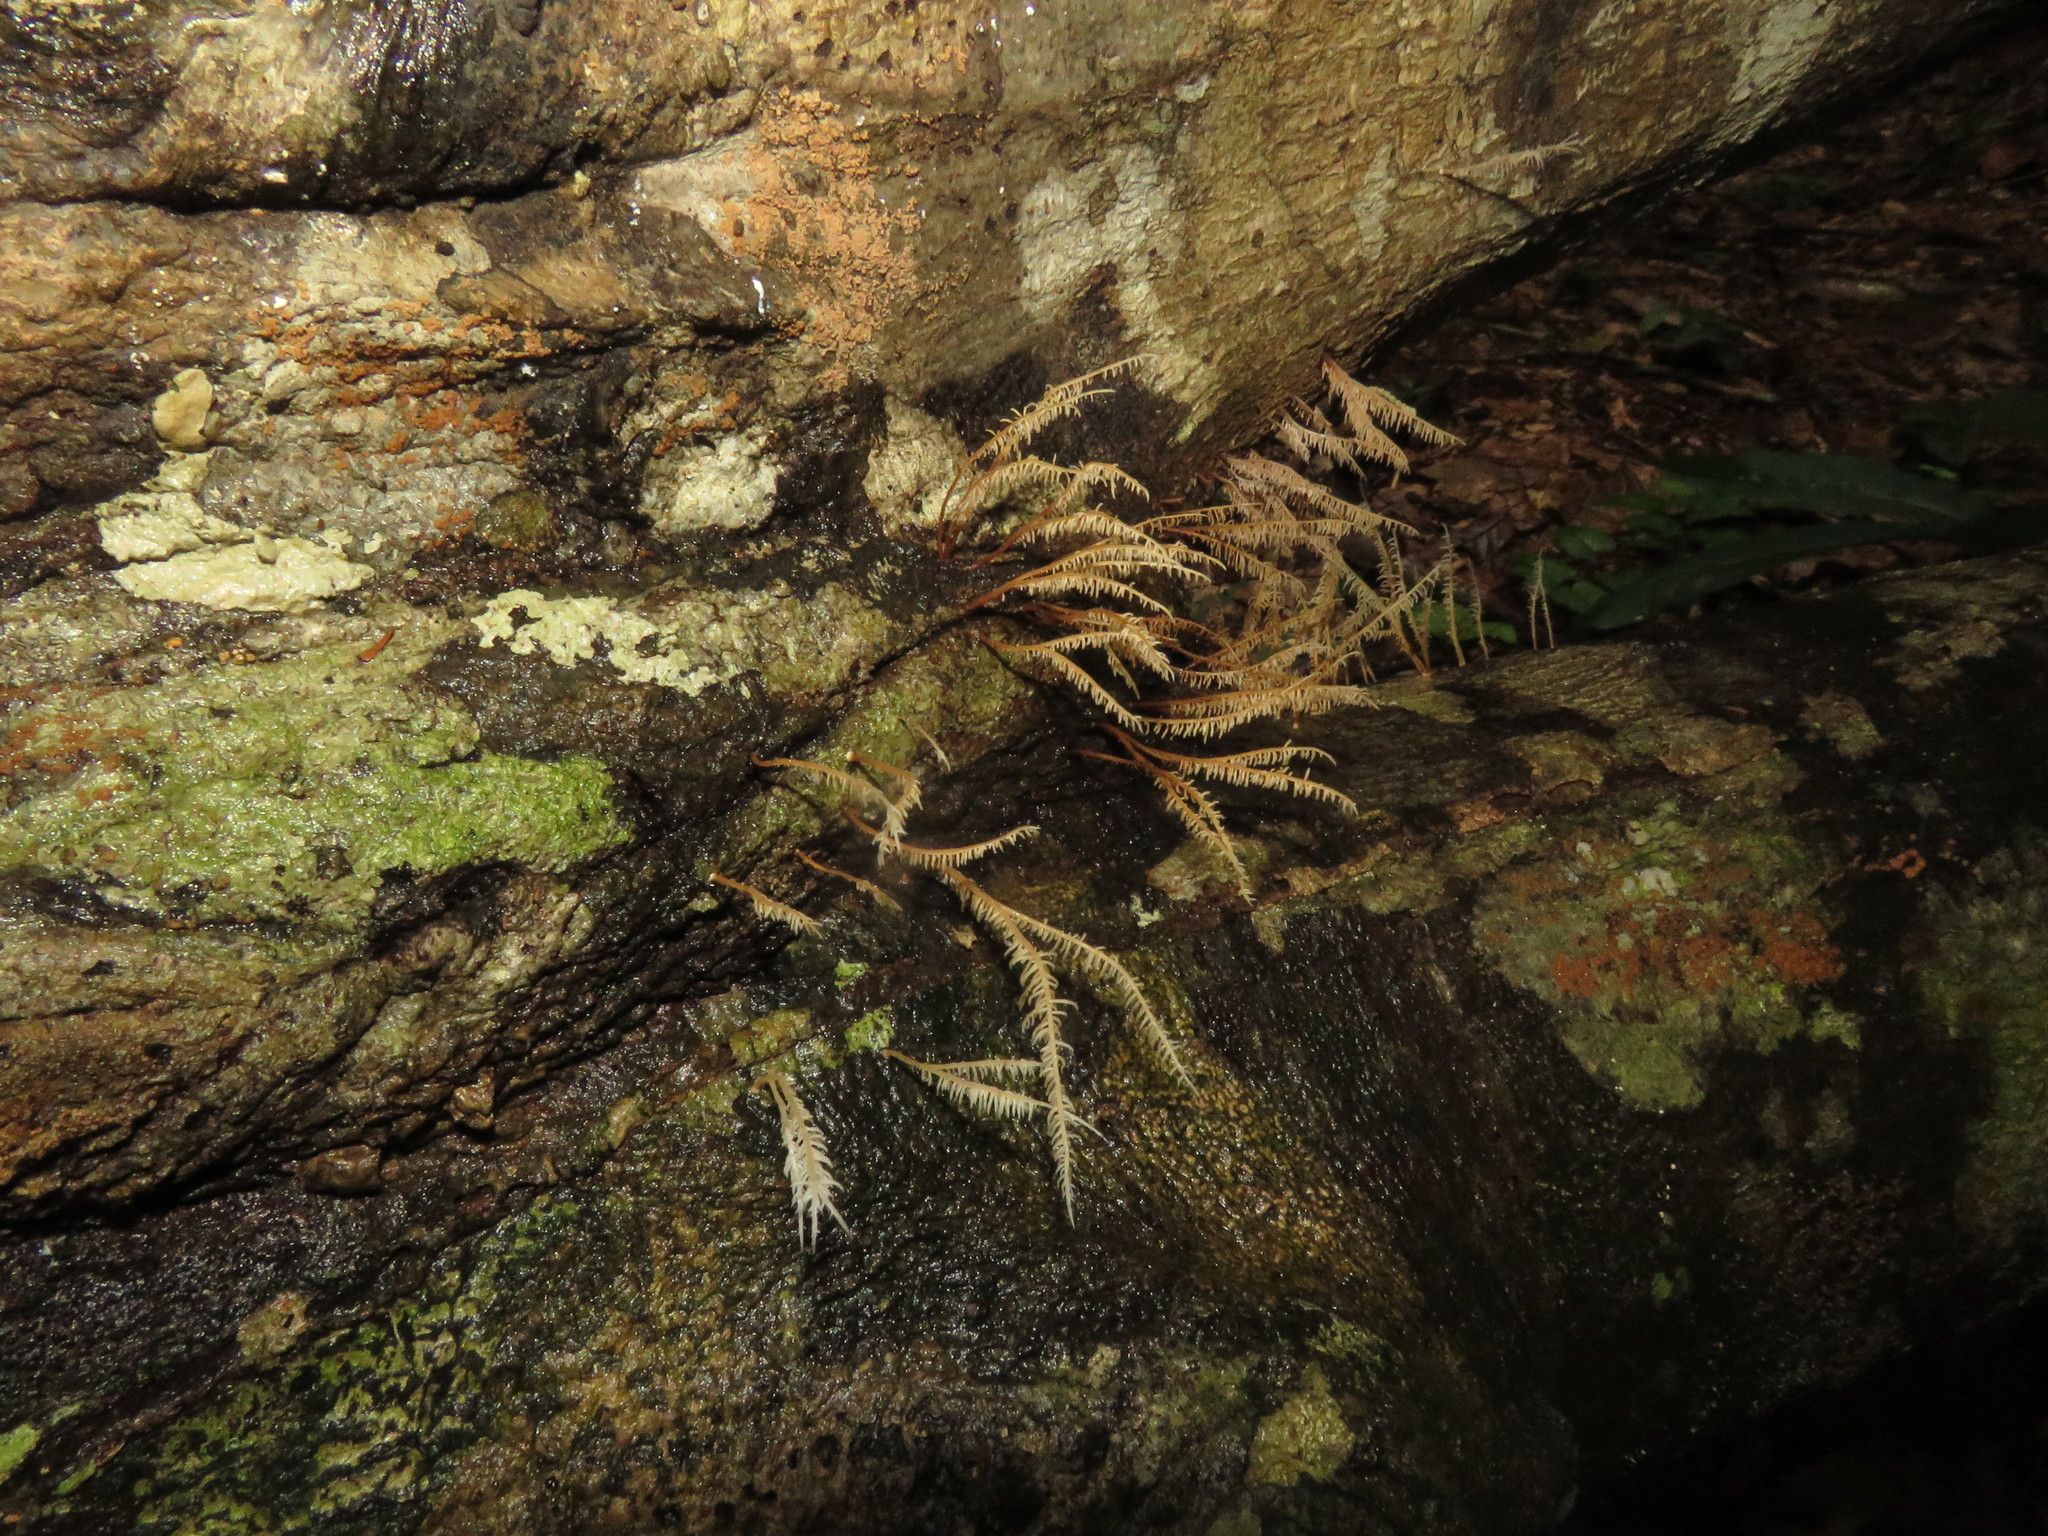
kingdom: Fungi
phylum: Basidiomycota
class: Agaricomycetes
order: Agaricales
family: Pterulaceae
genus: Pterulicium
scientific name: Pterulicium sprucei
